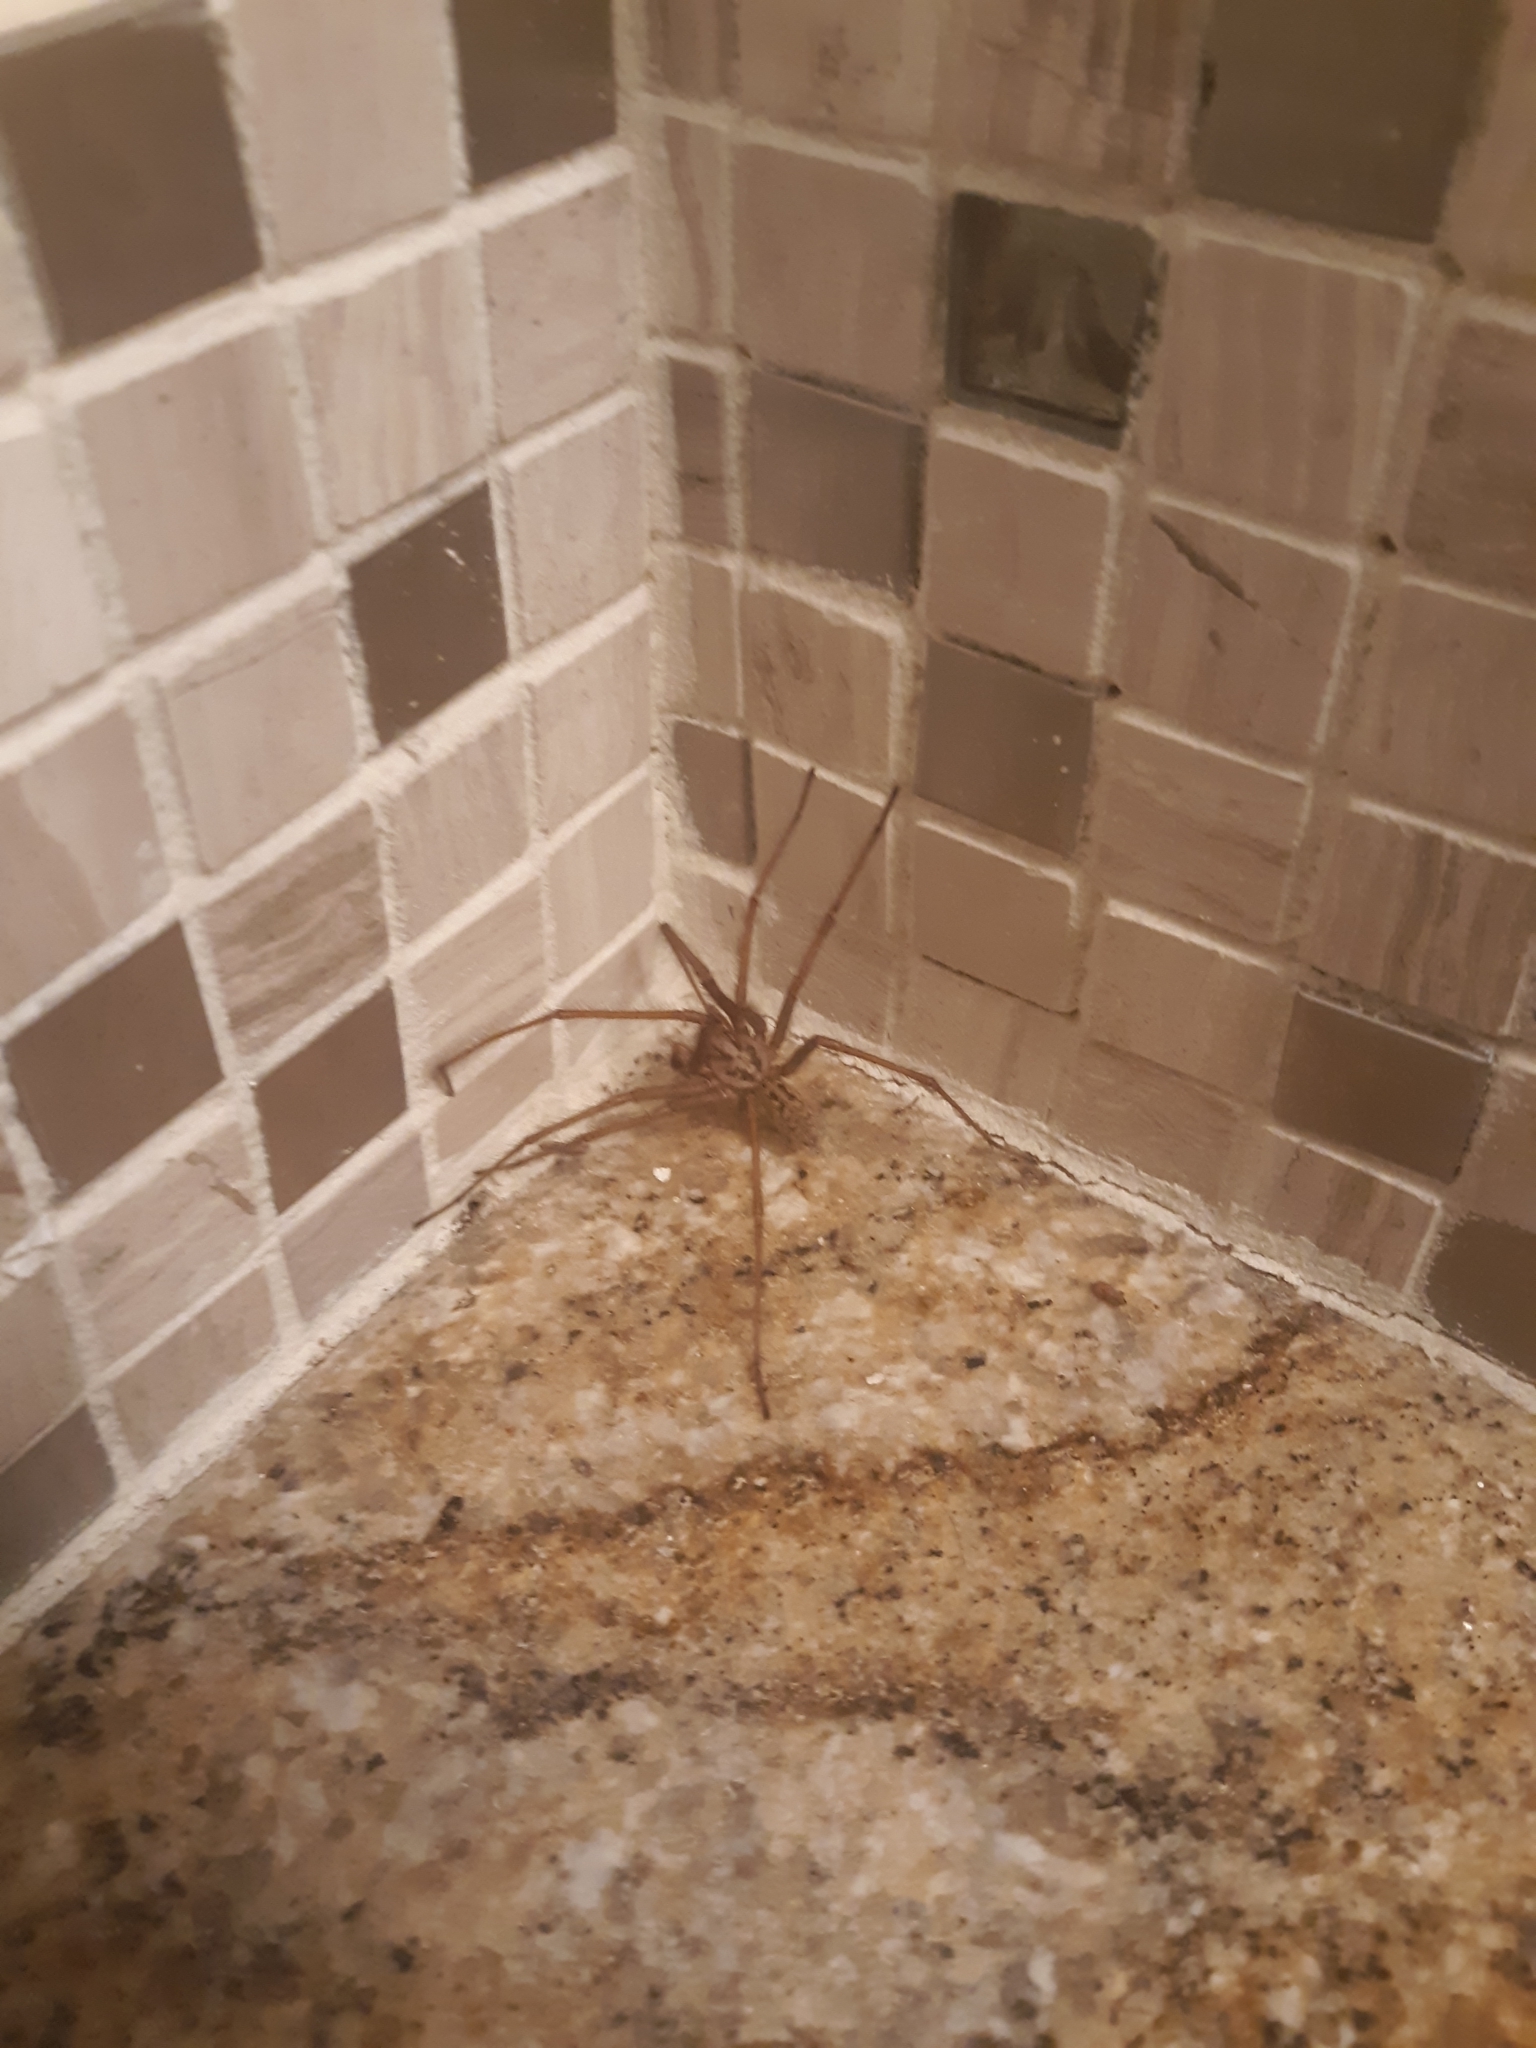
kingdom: Animalia
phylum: Arthropoda
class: Arachnida
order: Araneae
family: Agelenidae
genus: Eratigena
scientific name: Eratigena duellica
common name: Giant house spider
